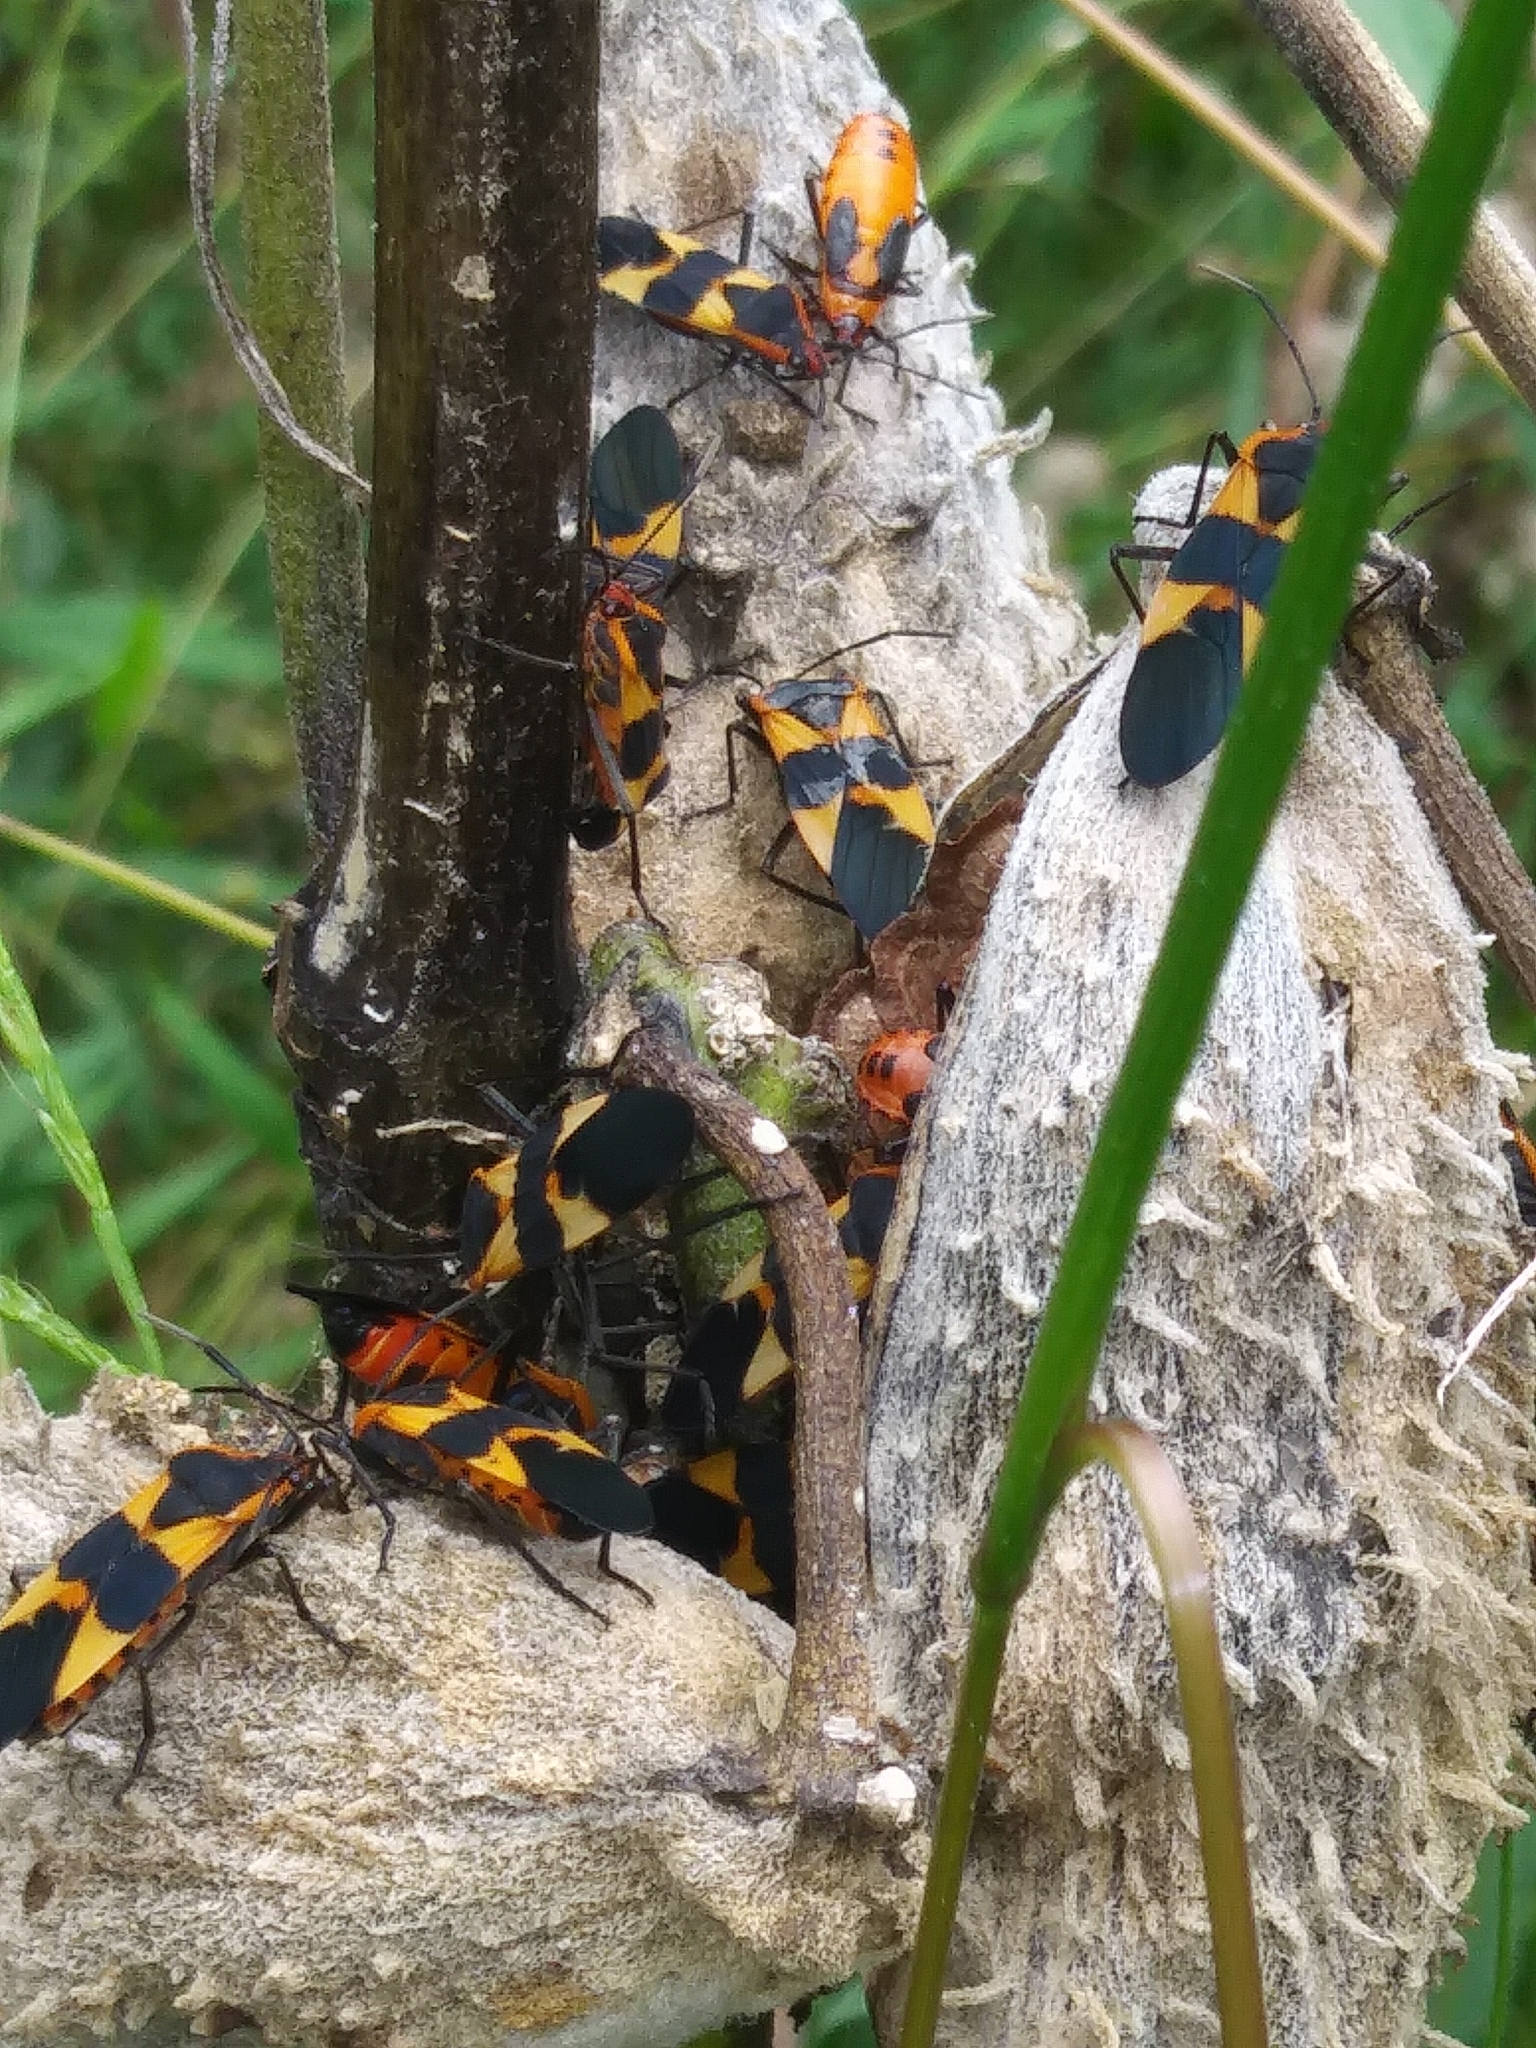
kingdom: Animalia
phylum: Arthropoda
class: Insecta
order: Hemiptera
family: Lygaeidae
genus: Oncopeltus
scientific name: Oncopeltus fasciatus
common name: Large milkweed bug
